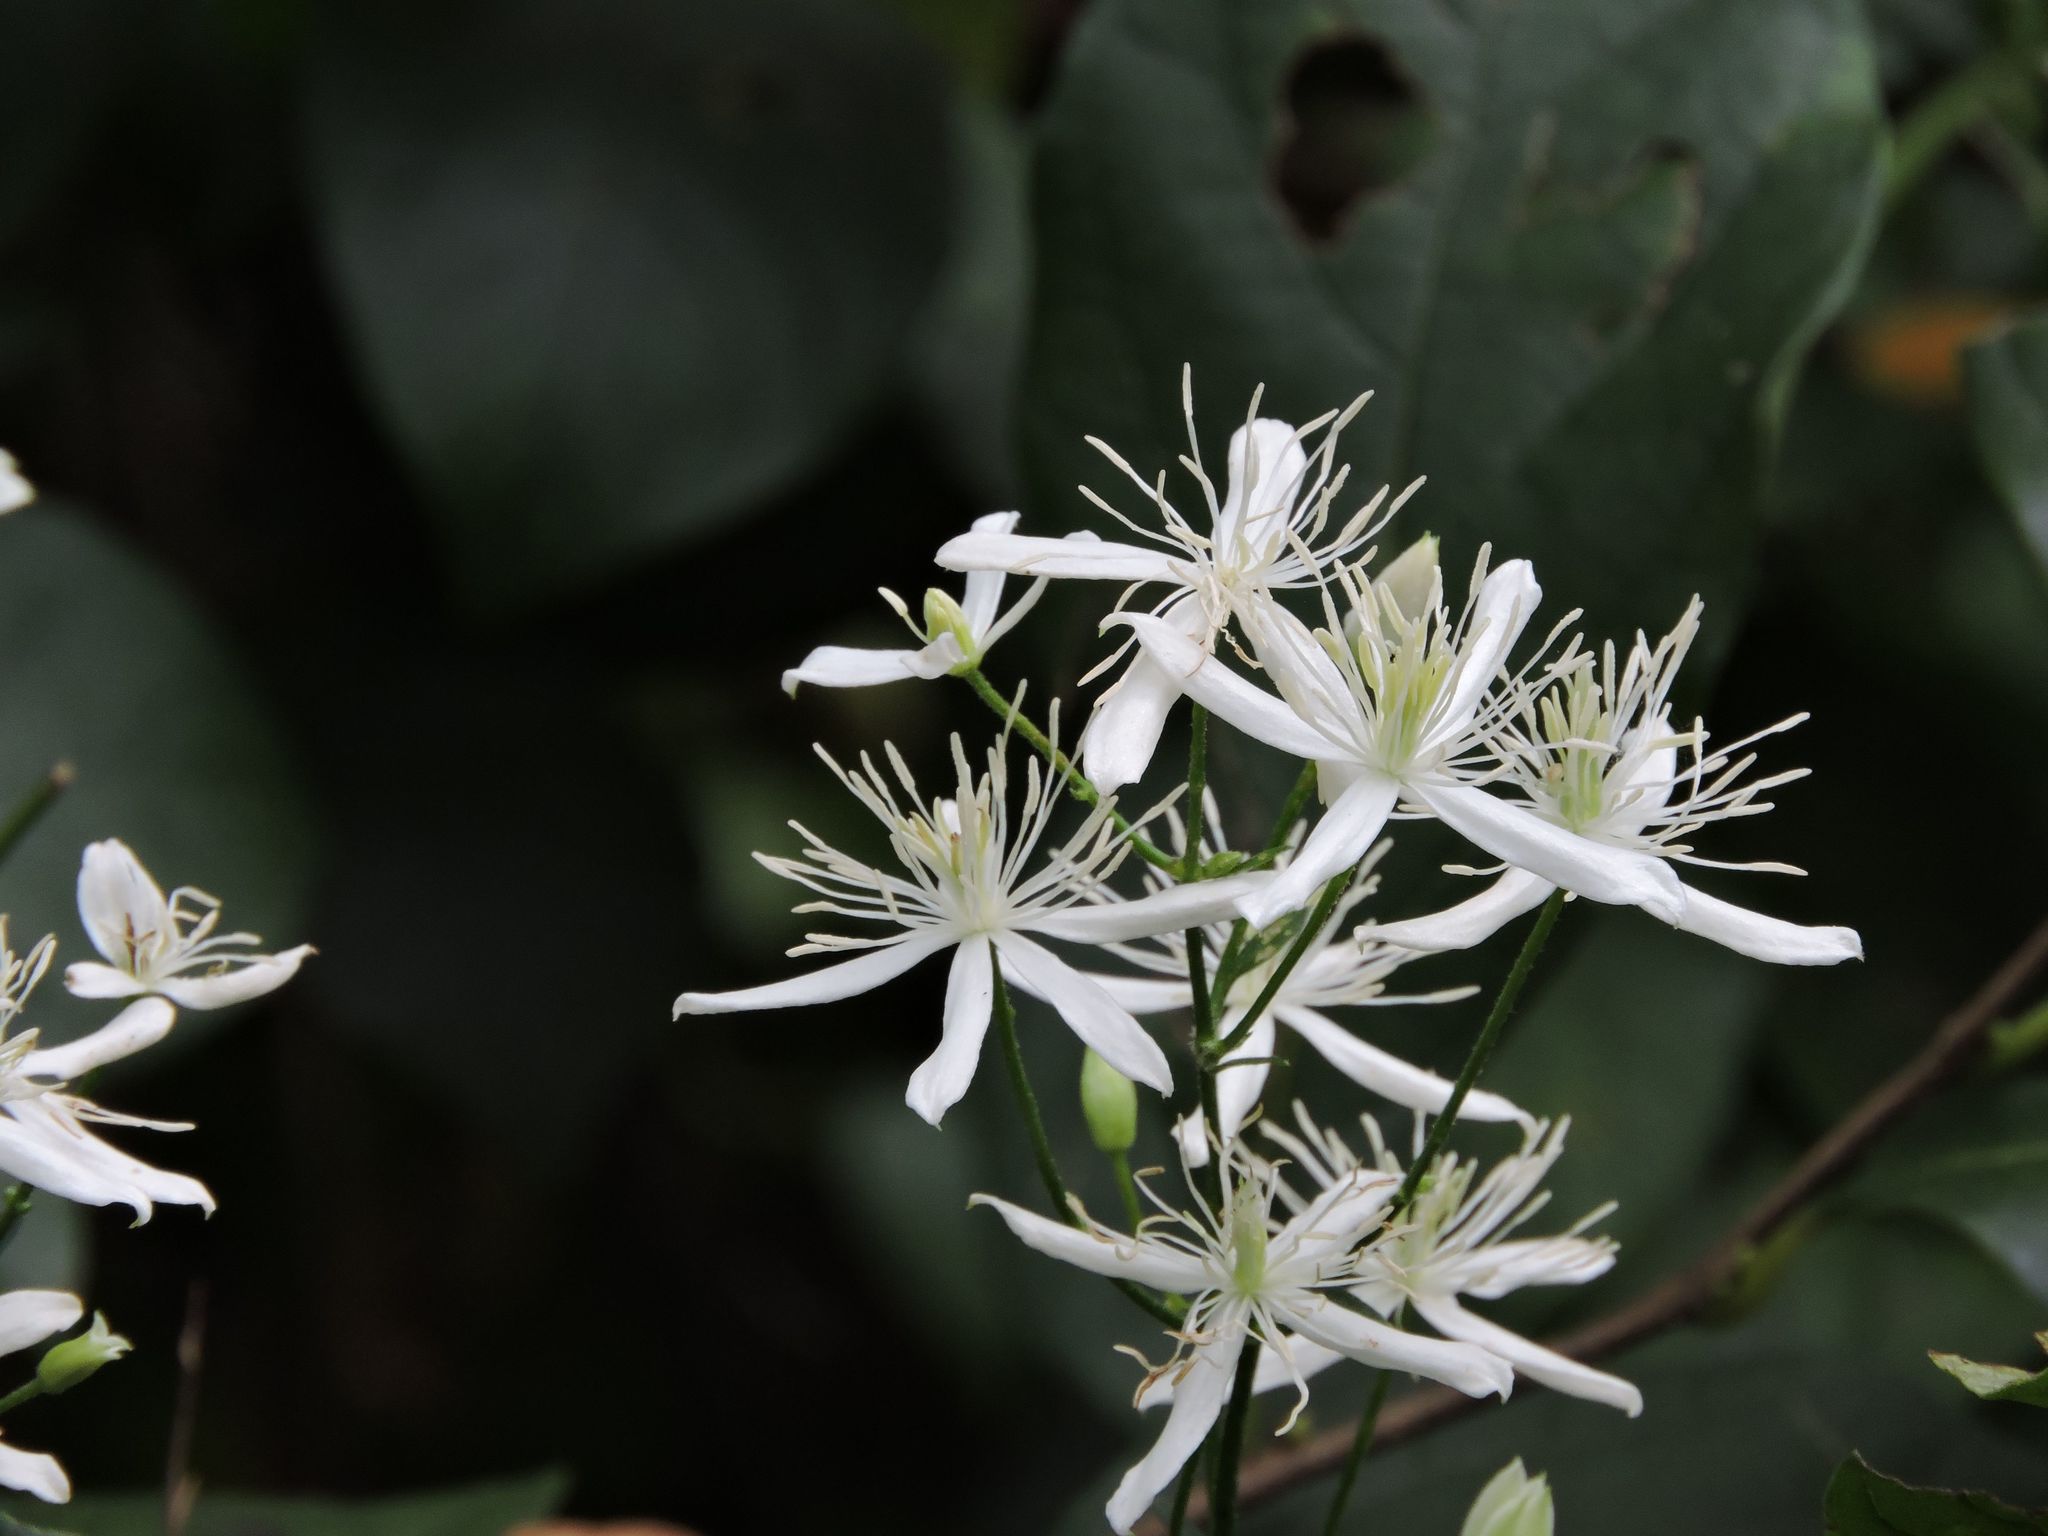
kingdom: Plantae
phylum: Tracheophyta
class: Magnoliopsida
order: Ranunculales
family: Ranunculaceae
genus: Clematis
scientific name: Clematis terniflora
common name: Sweet autumn clematis
